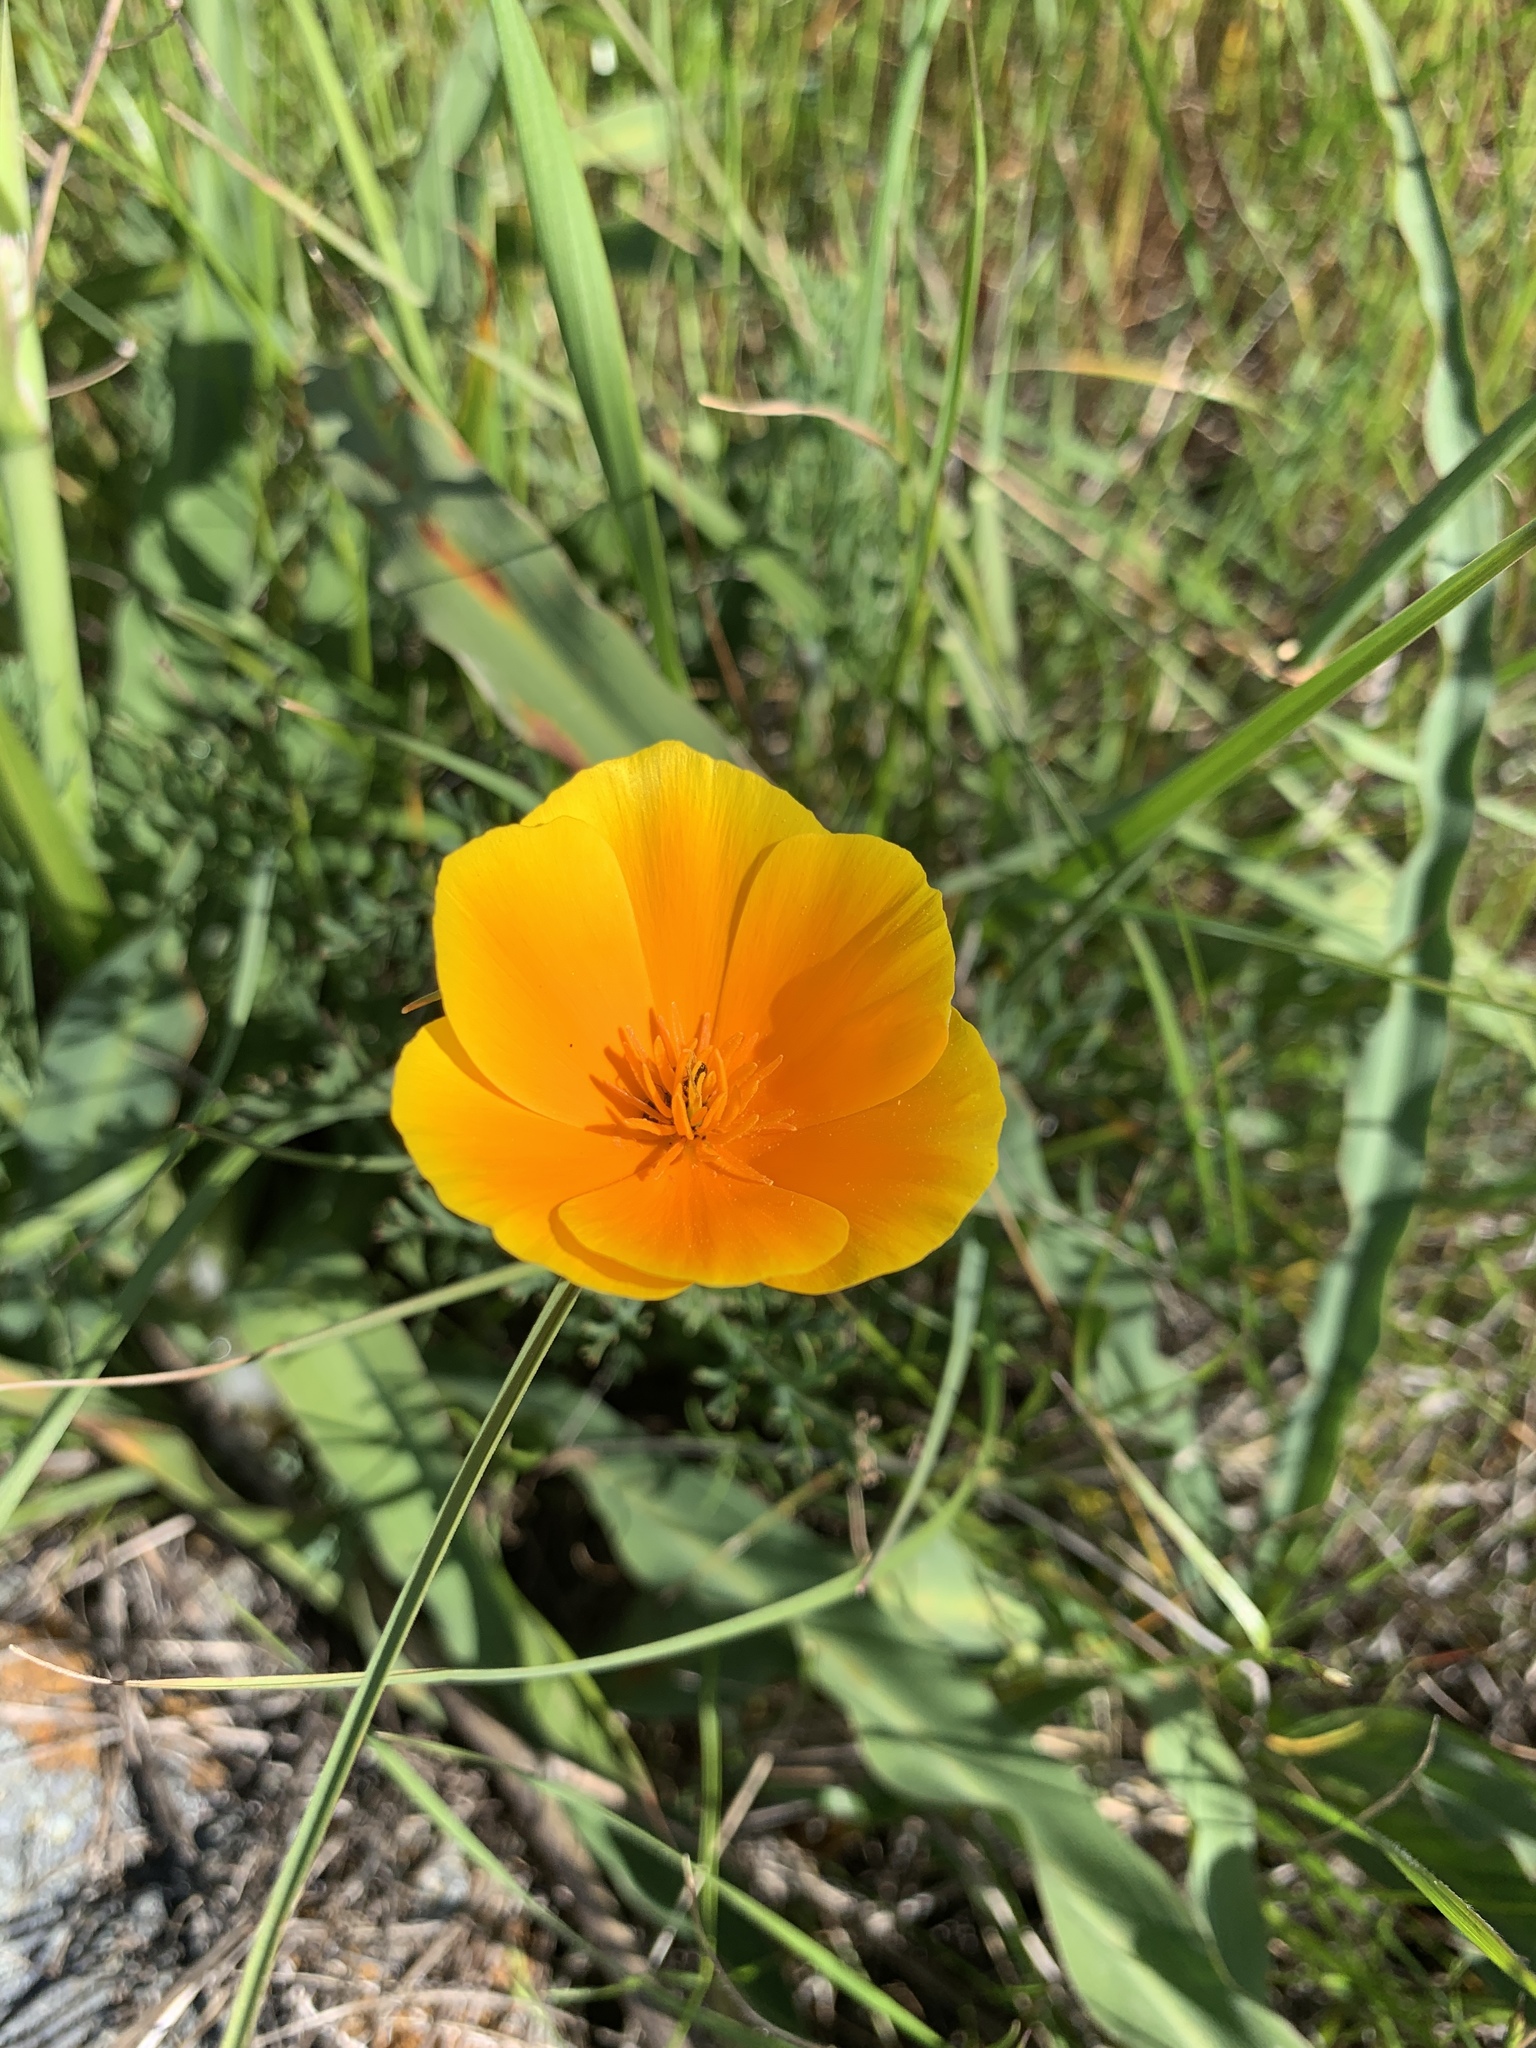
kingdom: Plantae
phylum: Tracheophyta
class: Magnoliopsida
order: Ranunculales
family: Papaveraceae
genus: Eschscholzia
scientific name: Eschscholzia californica
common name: California poppy
